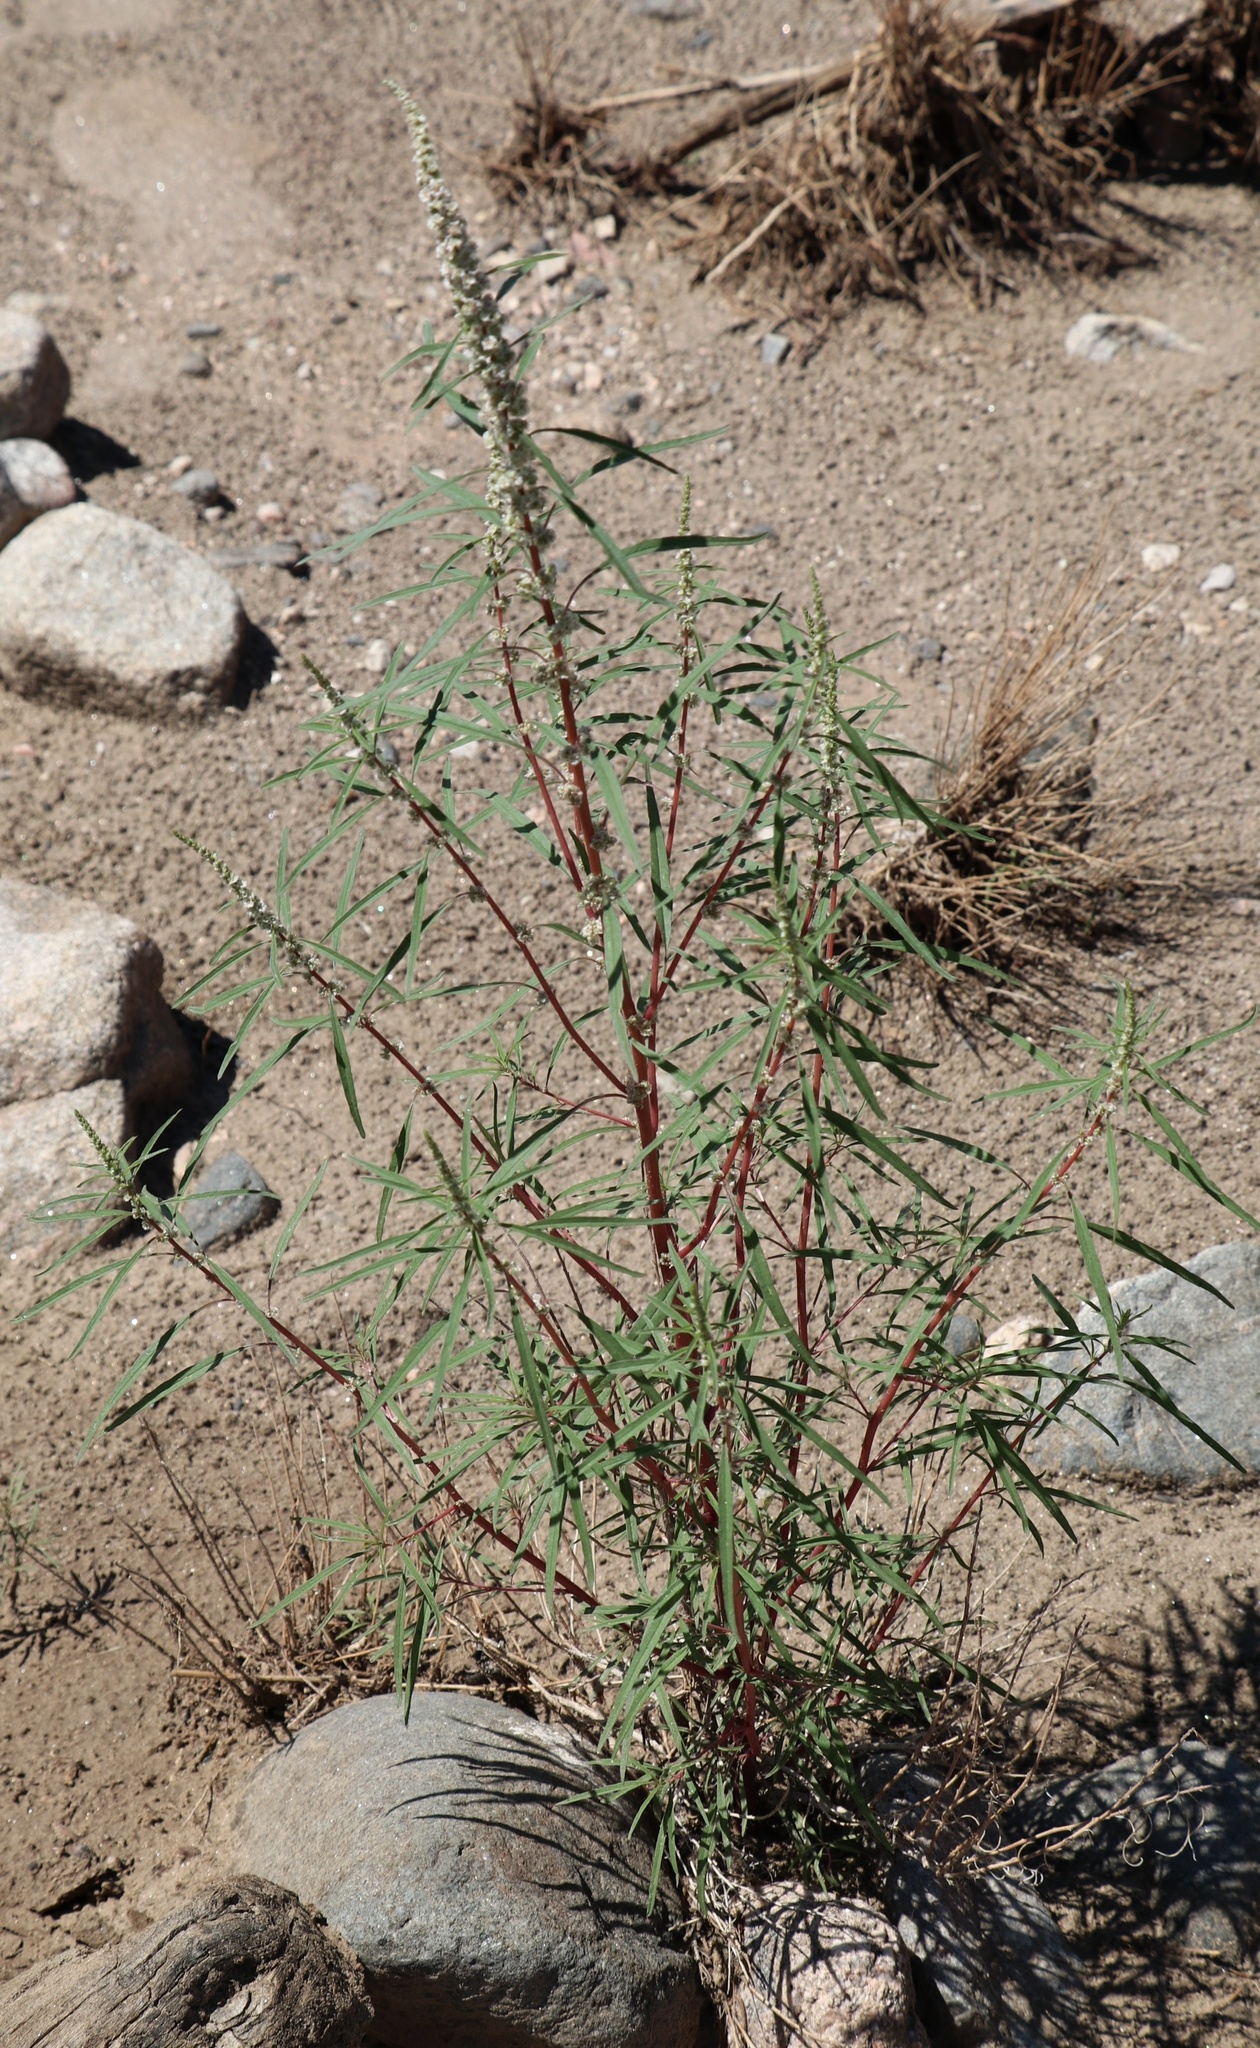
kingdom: Plantae
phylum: Tracheophyta
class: Magnoliopsida
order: Caryophyllales
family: Amaranthaceae
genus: Amaranthus
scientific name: Amaranthus fimbriatus
